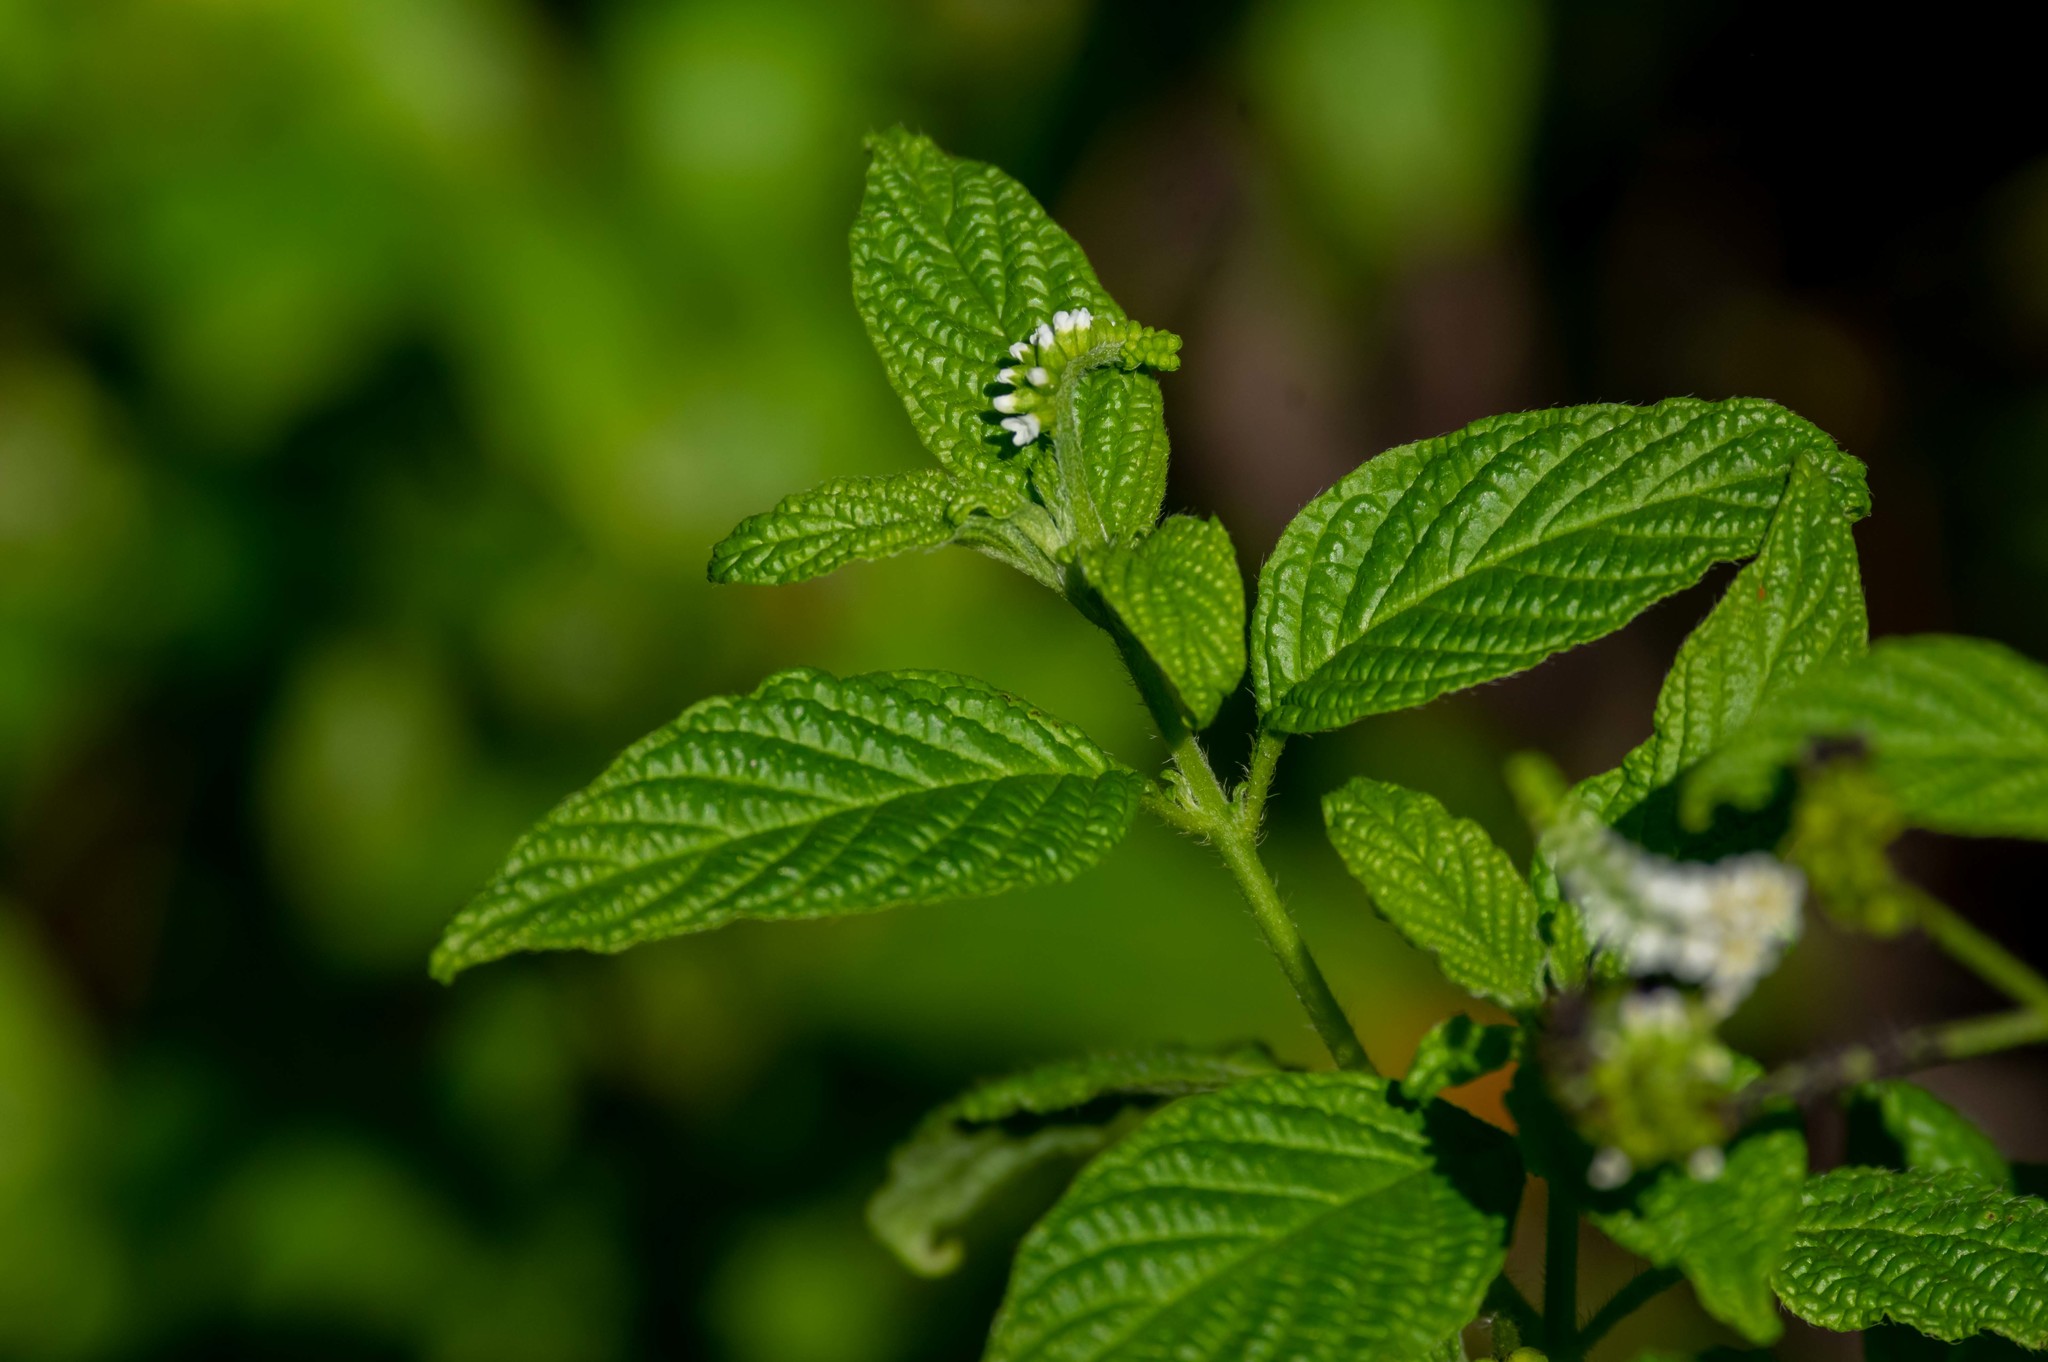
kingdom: Plantae
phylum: Tracheophyta
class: Magnoliopsida
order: Boraginales
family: Heliotropiaceae
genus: Heliotropium
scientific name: Heliotropium angiospermum
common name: Eye bright
